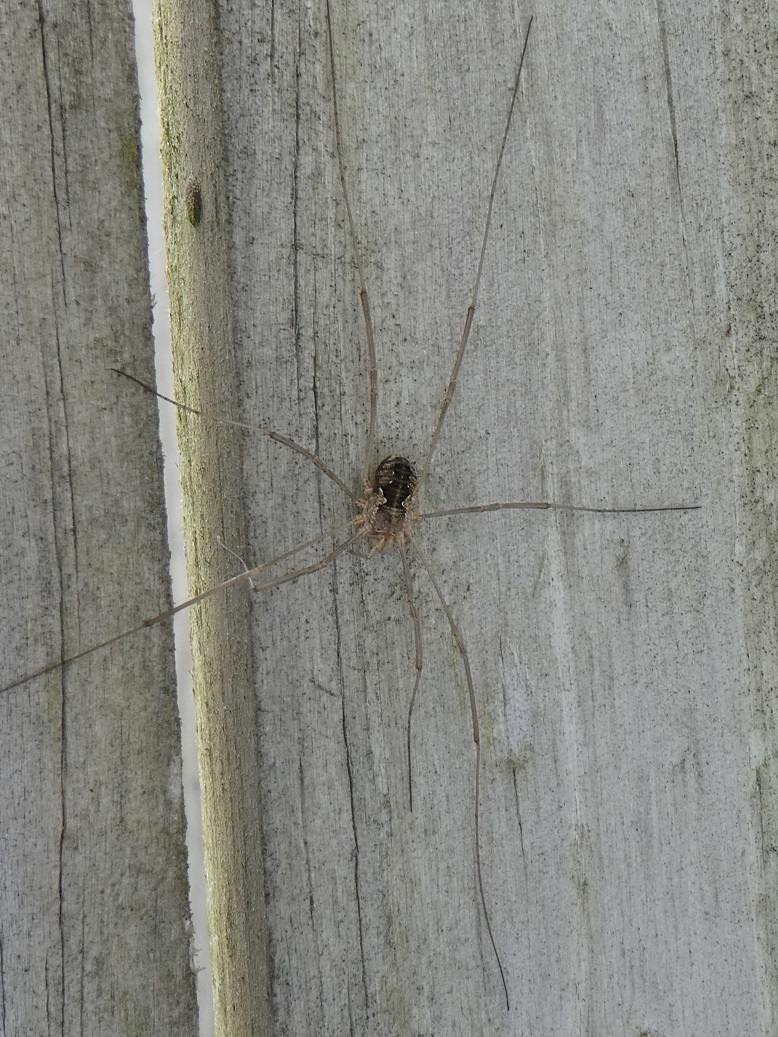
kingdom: Animalia
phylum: Arthropoda
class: Arachnida
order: Opiliones
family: Phalangiidae
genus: Phalangium
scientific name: Phalangium opilio
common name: Daddy longleg
